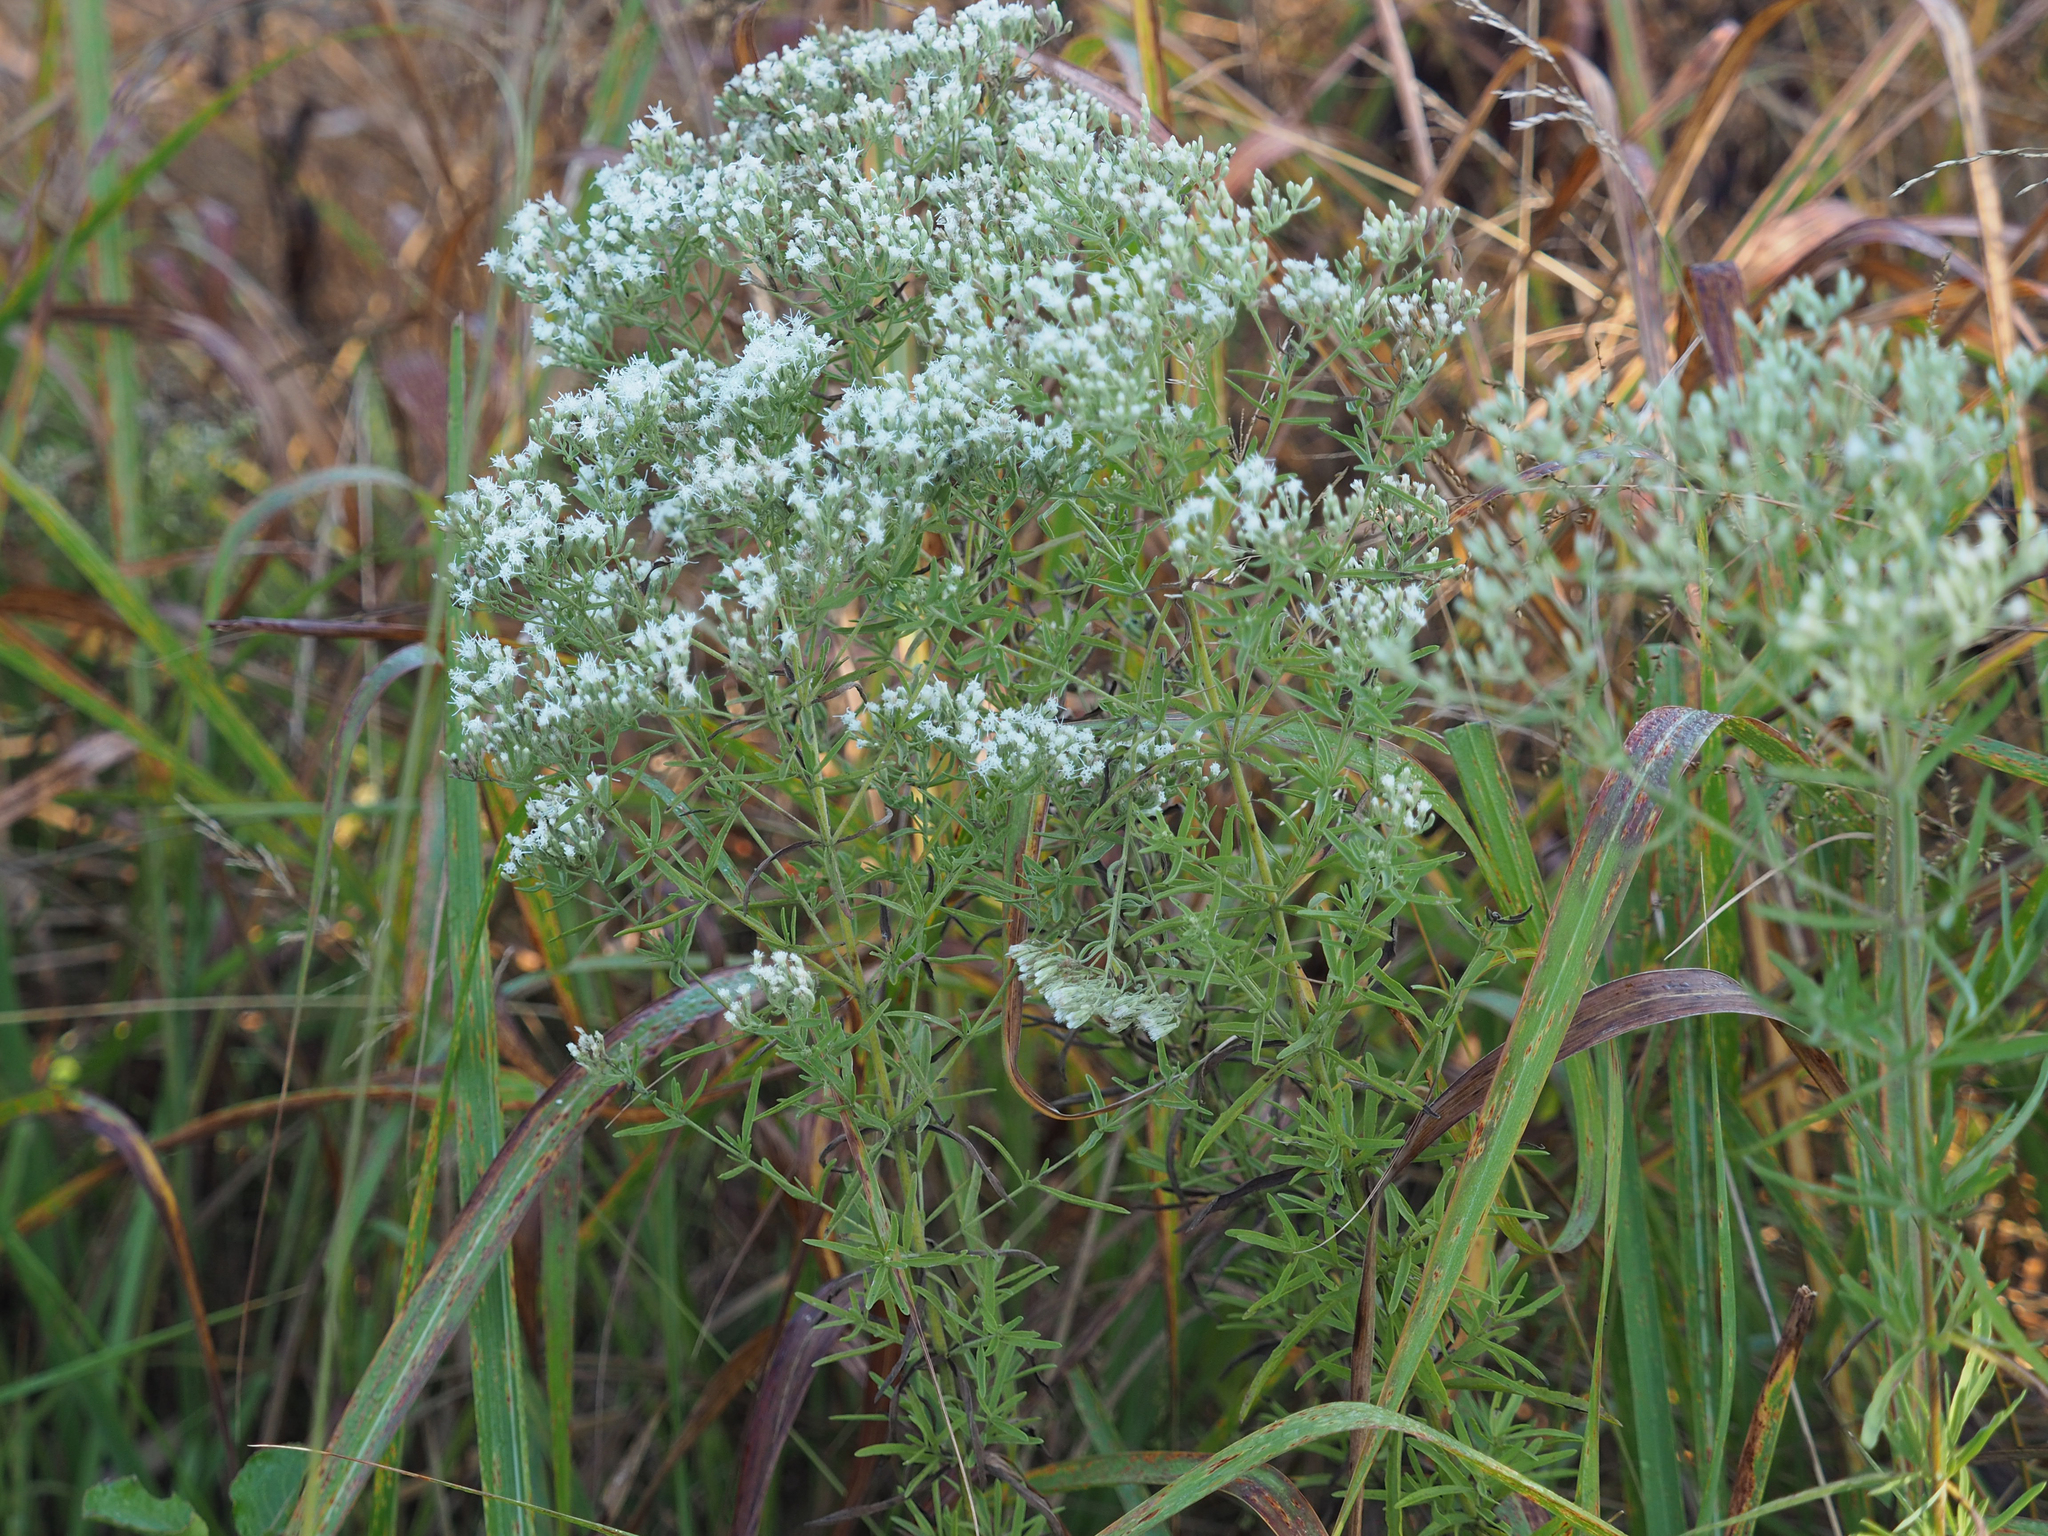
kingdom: Plantae
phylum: Tracheophyta
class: Magnoliopsida
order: Asterales
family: Asteraceae
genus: Eupatorium
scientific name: Eupatorium hyssopifolium
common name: Hyssop-leaf thoroughwort
